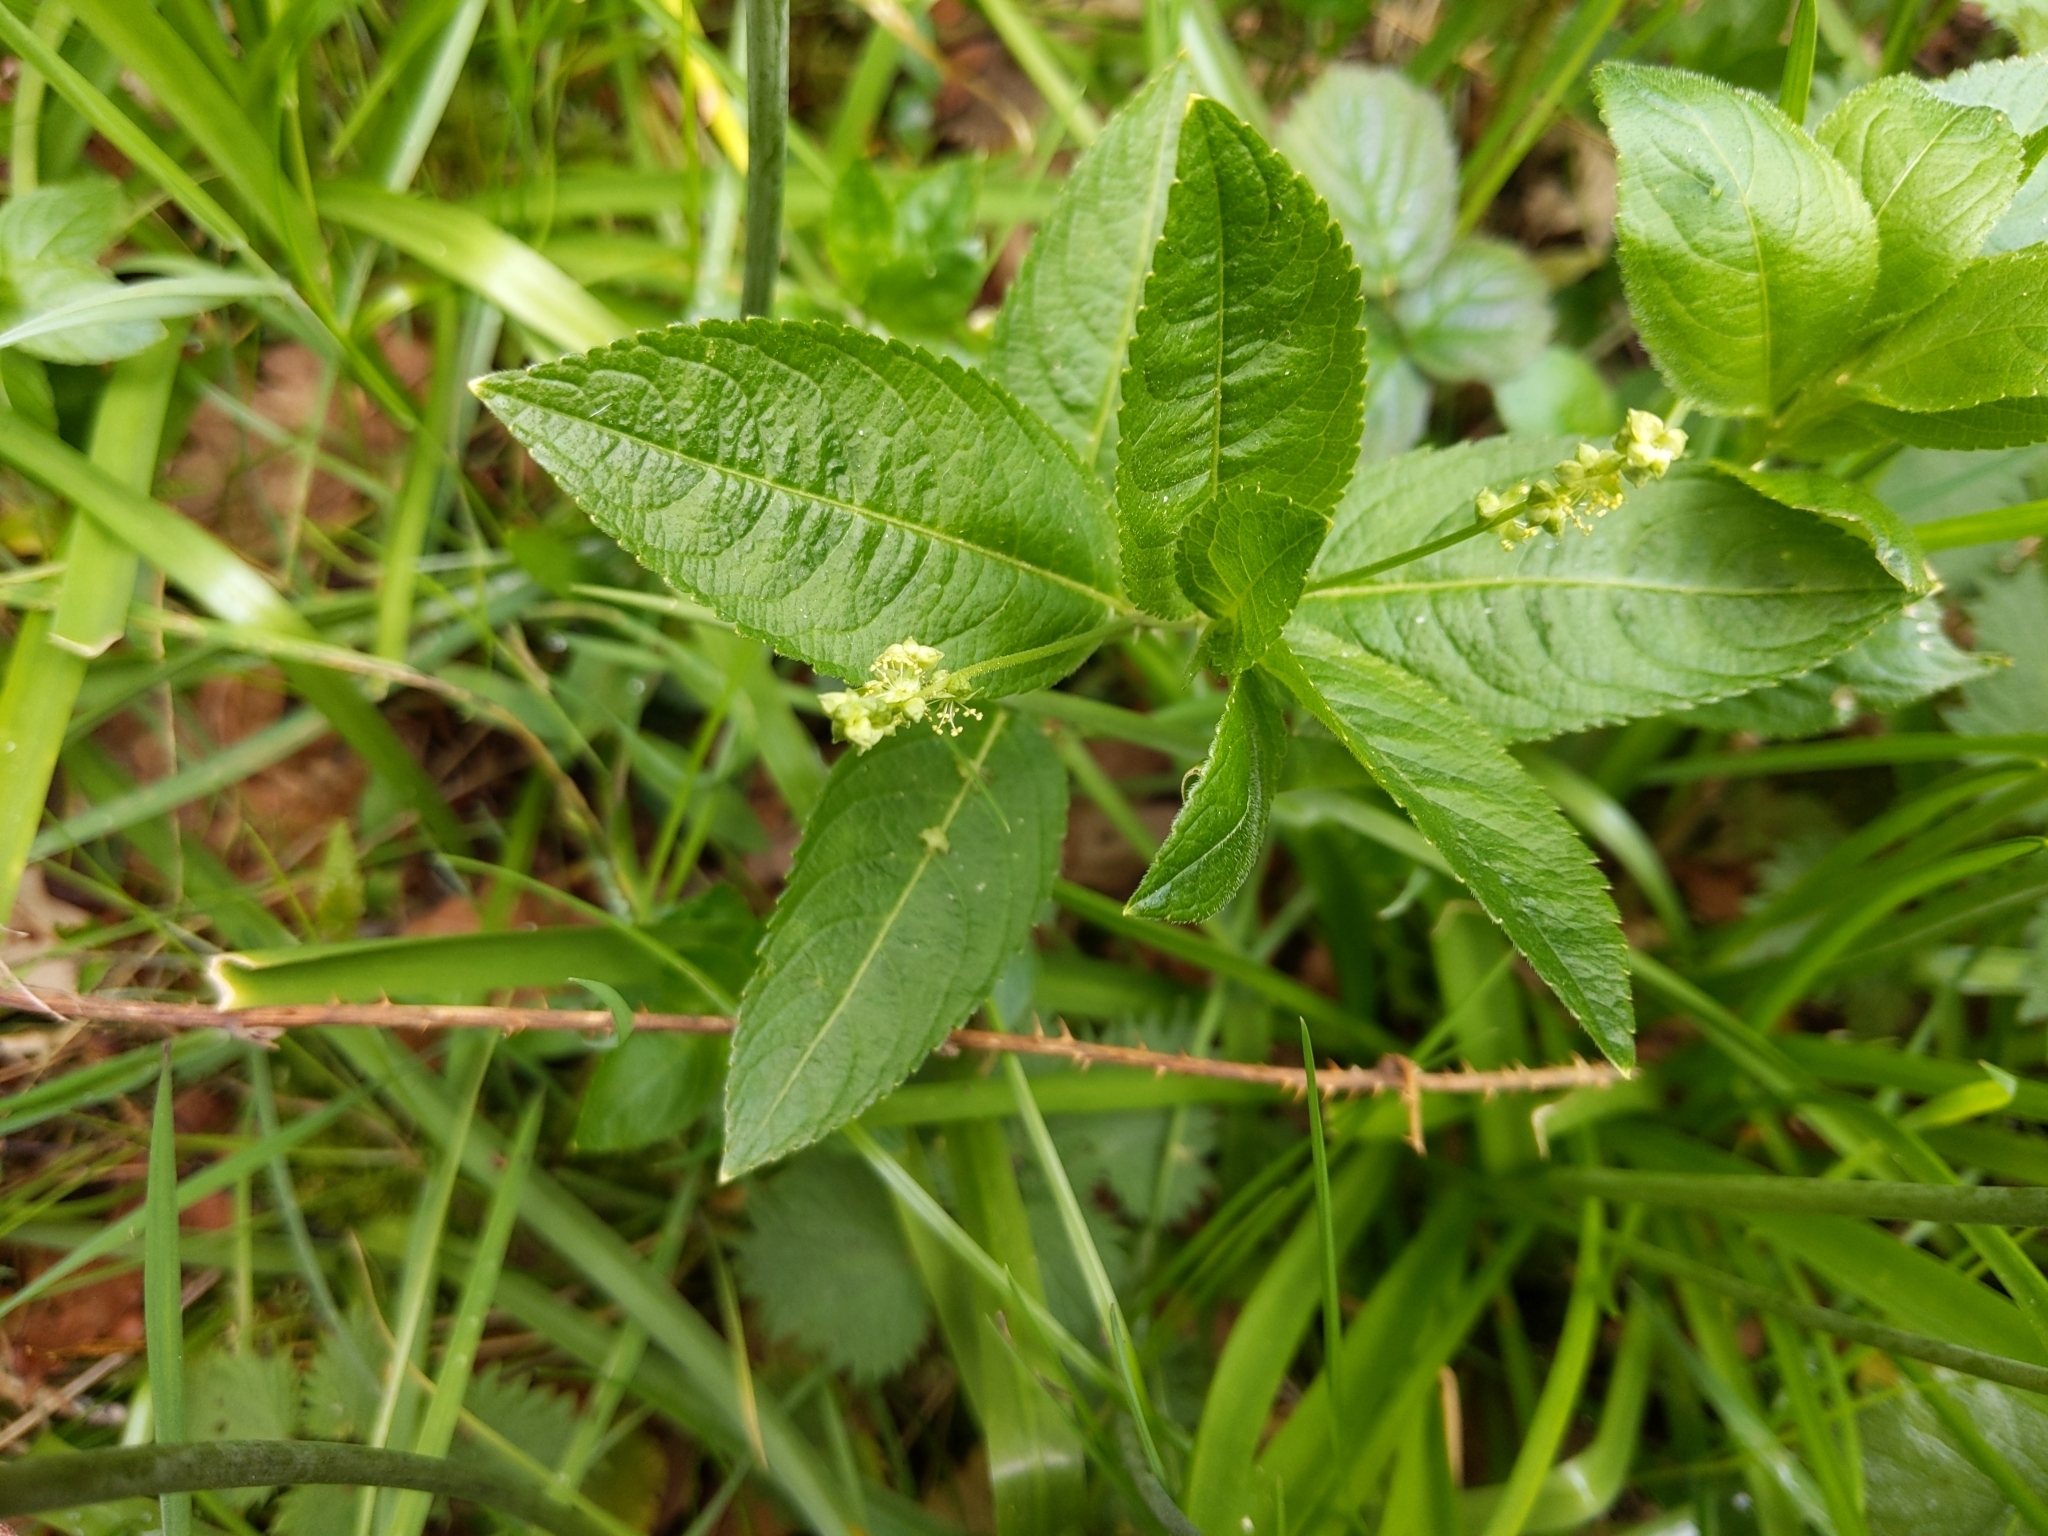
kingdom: Plantae
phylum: Tracheophyta
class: Magnoliopsida
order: Malpighiales
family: Euphorbiaceae
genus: Mercurialis
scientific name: Mercurialis perennis
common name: Dog mercury
